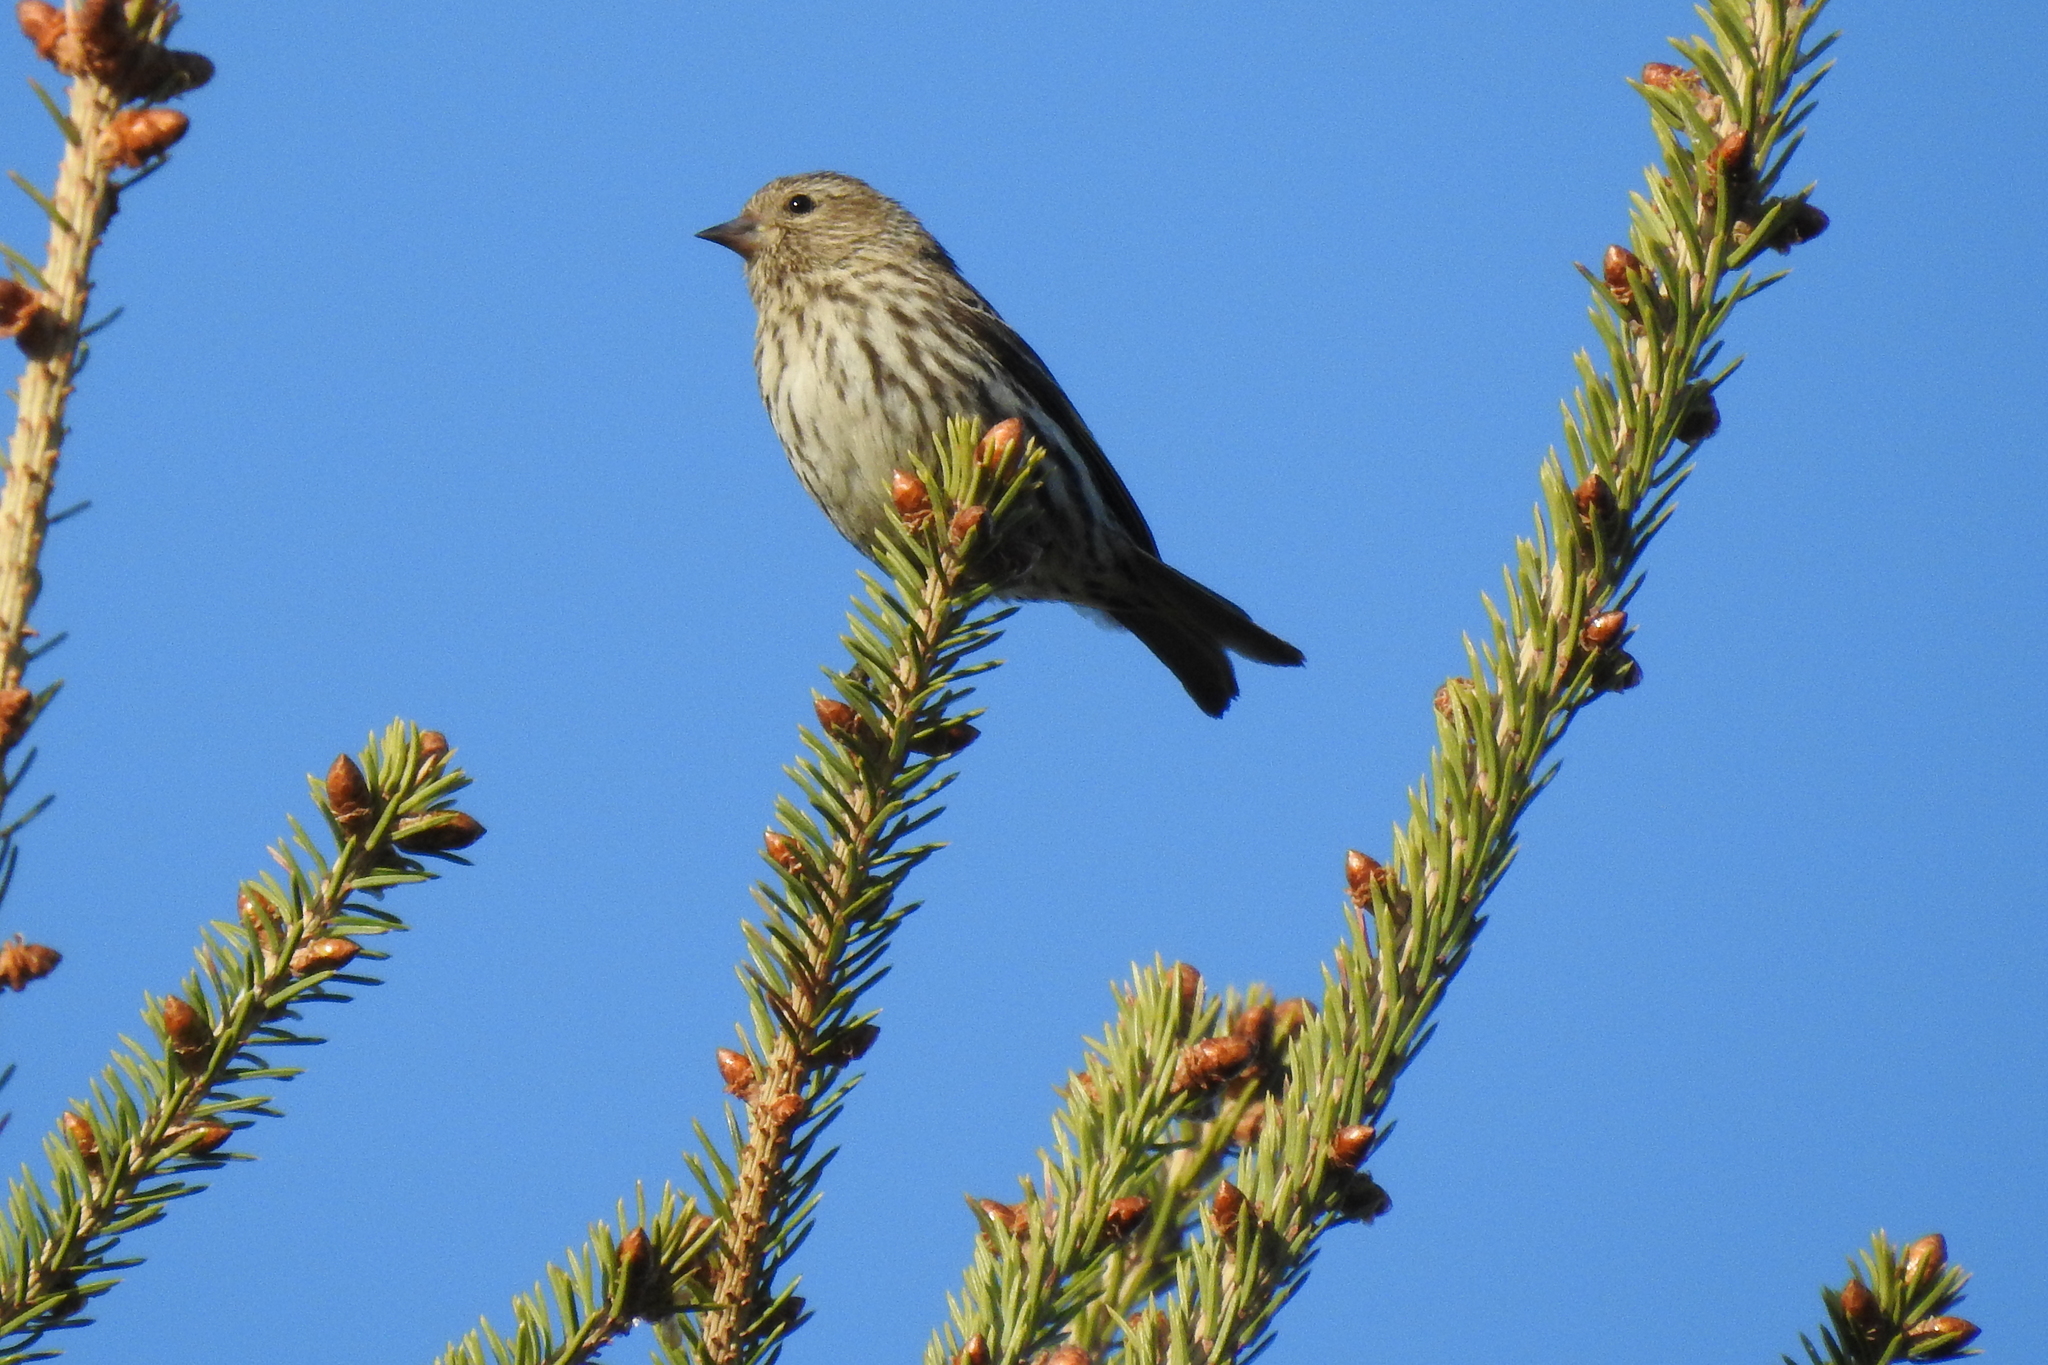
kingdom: Animalia
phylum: Chordata
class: Aves
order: Passeriformes
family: Fringillidae
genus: Spinus
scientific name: Spinus pinus
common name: Pine siskin
